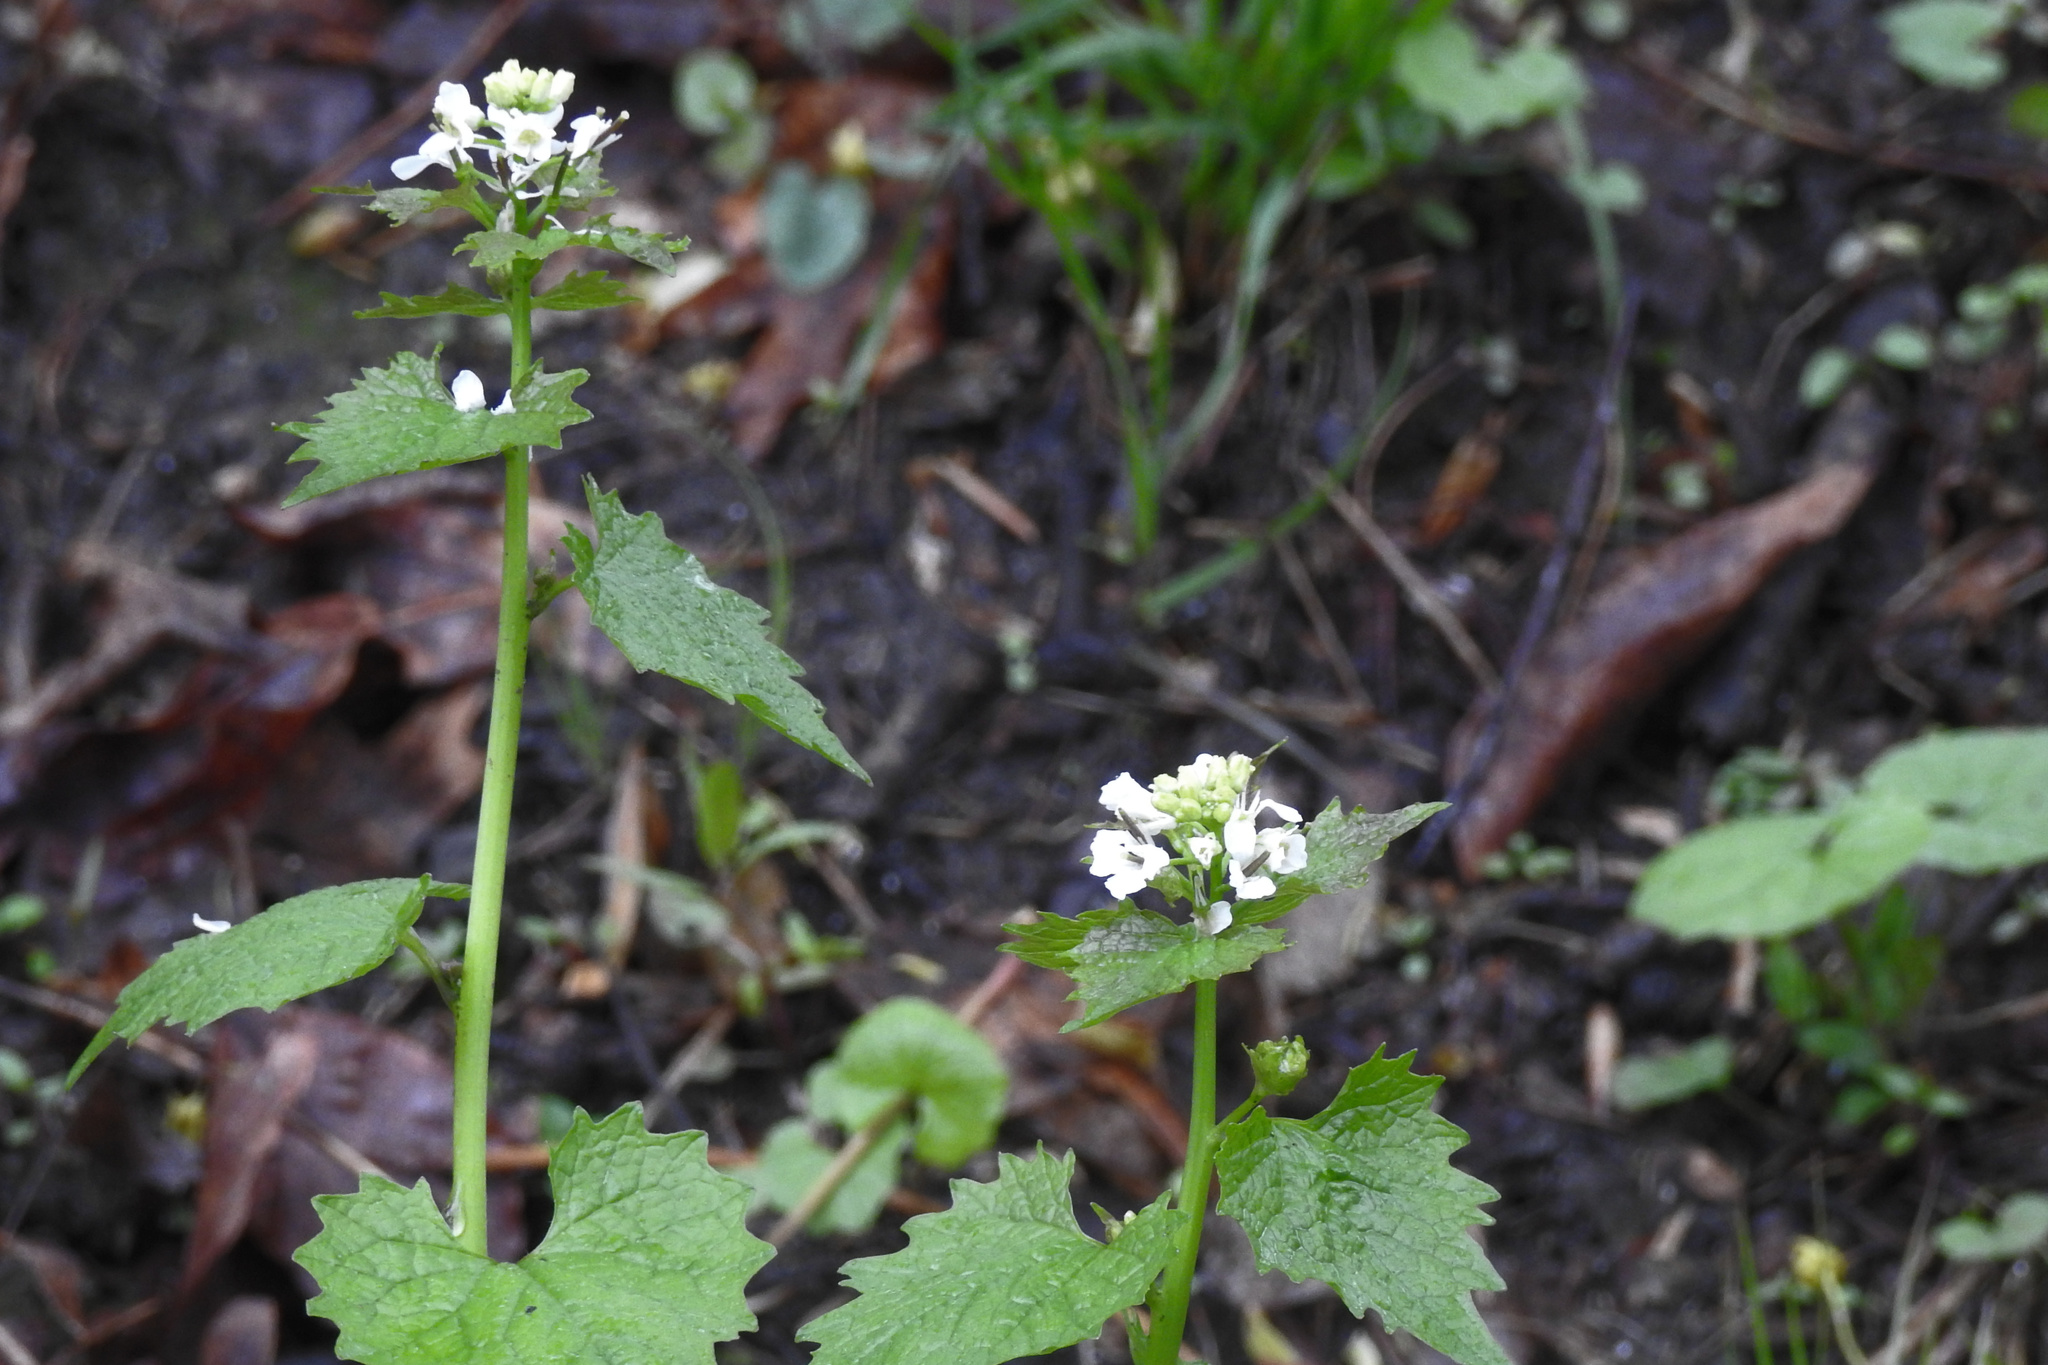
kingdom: Plantae
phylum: Tracheophyta
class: Magnoliopsida
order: Brassicales
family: Brassicaceae
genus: Alliaria
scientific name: Alliaria petiolata
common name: Garlic mustard
